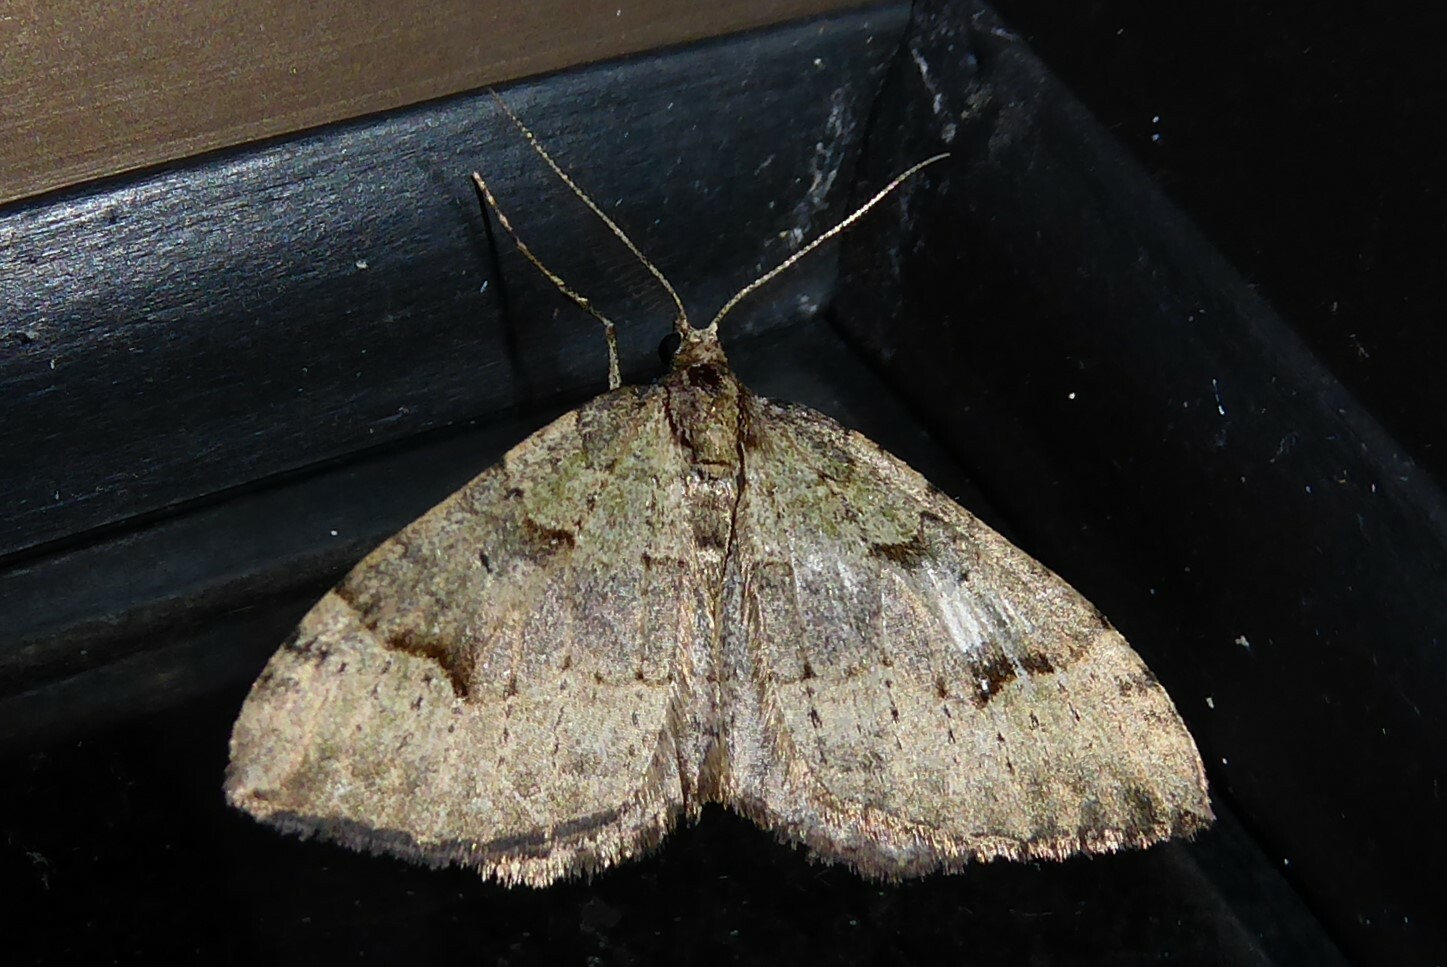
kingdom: Animalia
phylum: Arthropoda
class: Insecta
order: Lepidoptera
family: Geometridae
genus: Epyaxa
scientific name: Epyaxa rosearia
